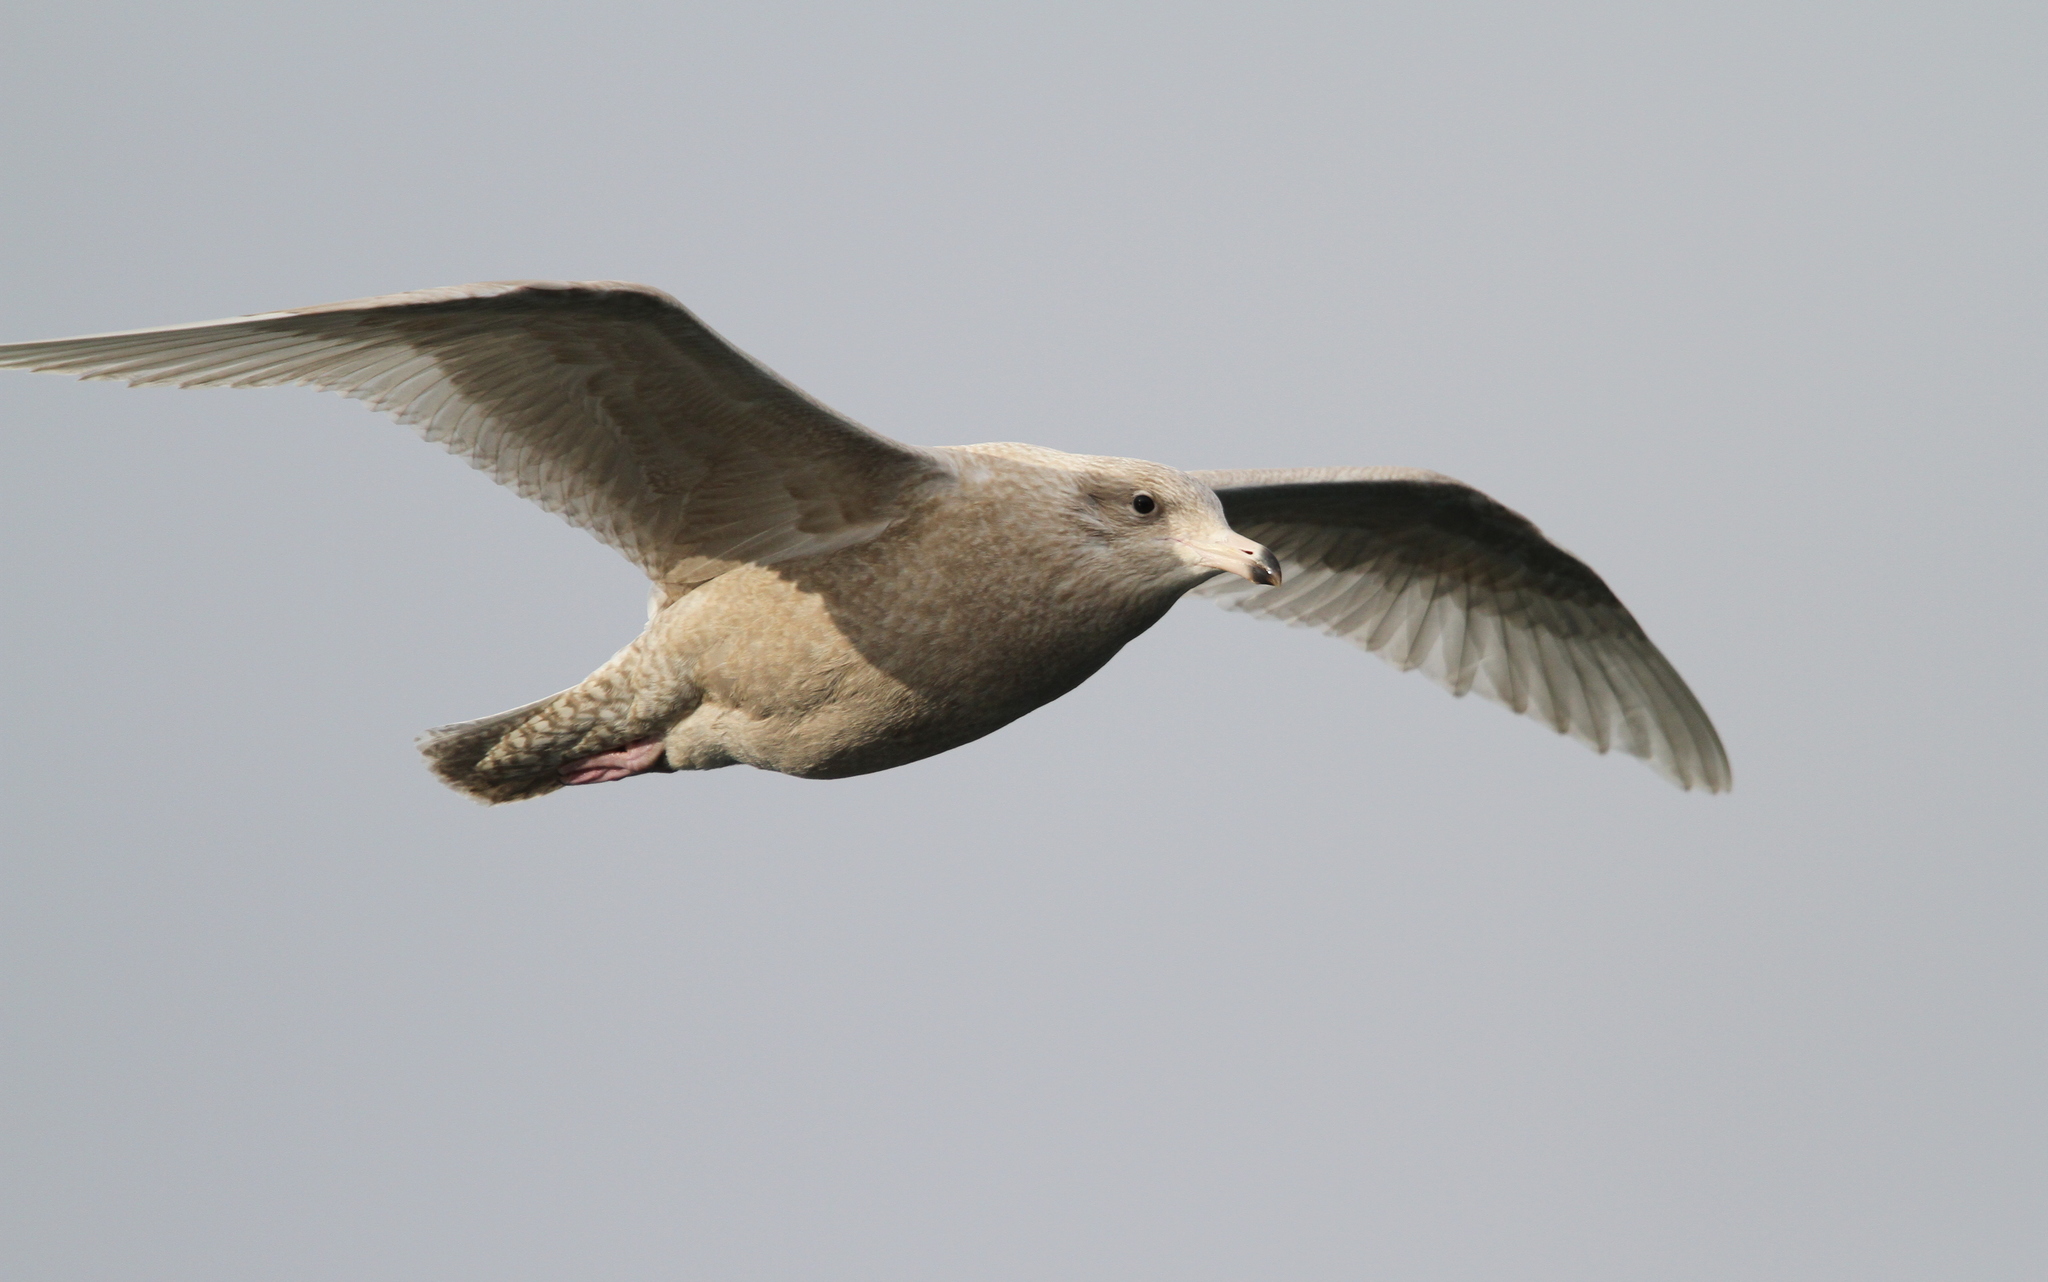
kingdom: Animalia
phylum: Chordata
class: Aves
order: Charadriiformes
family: Laridae
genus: Larus
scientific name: Larus hyperboreus
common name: Glaucous gull
